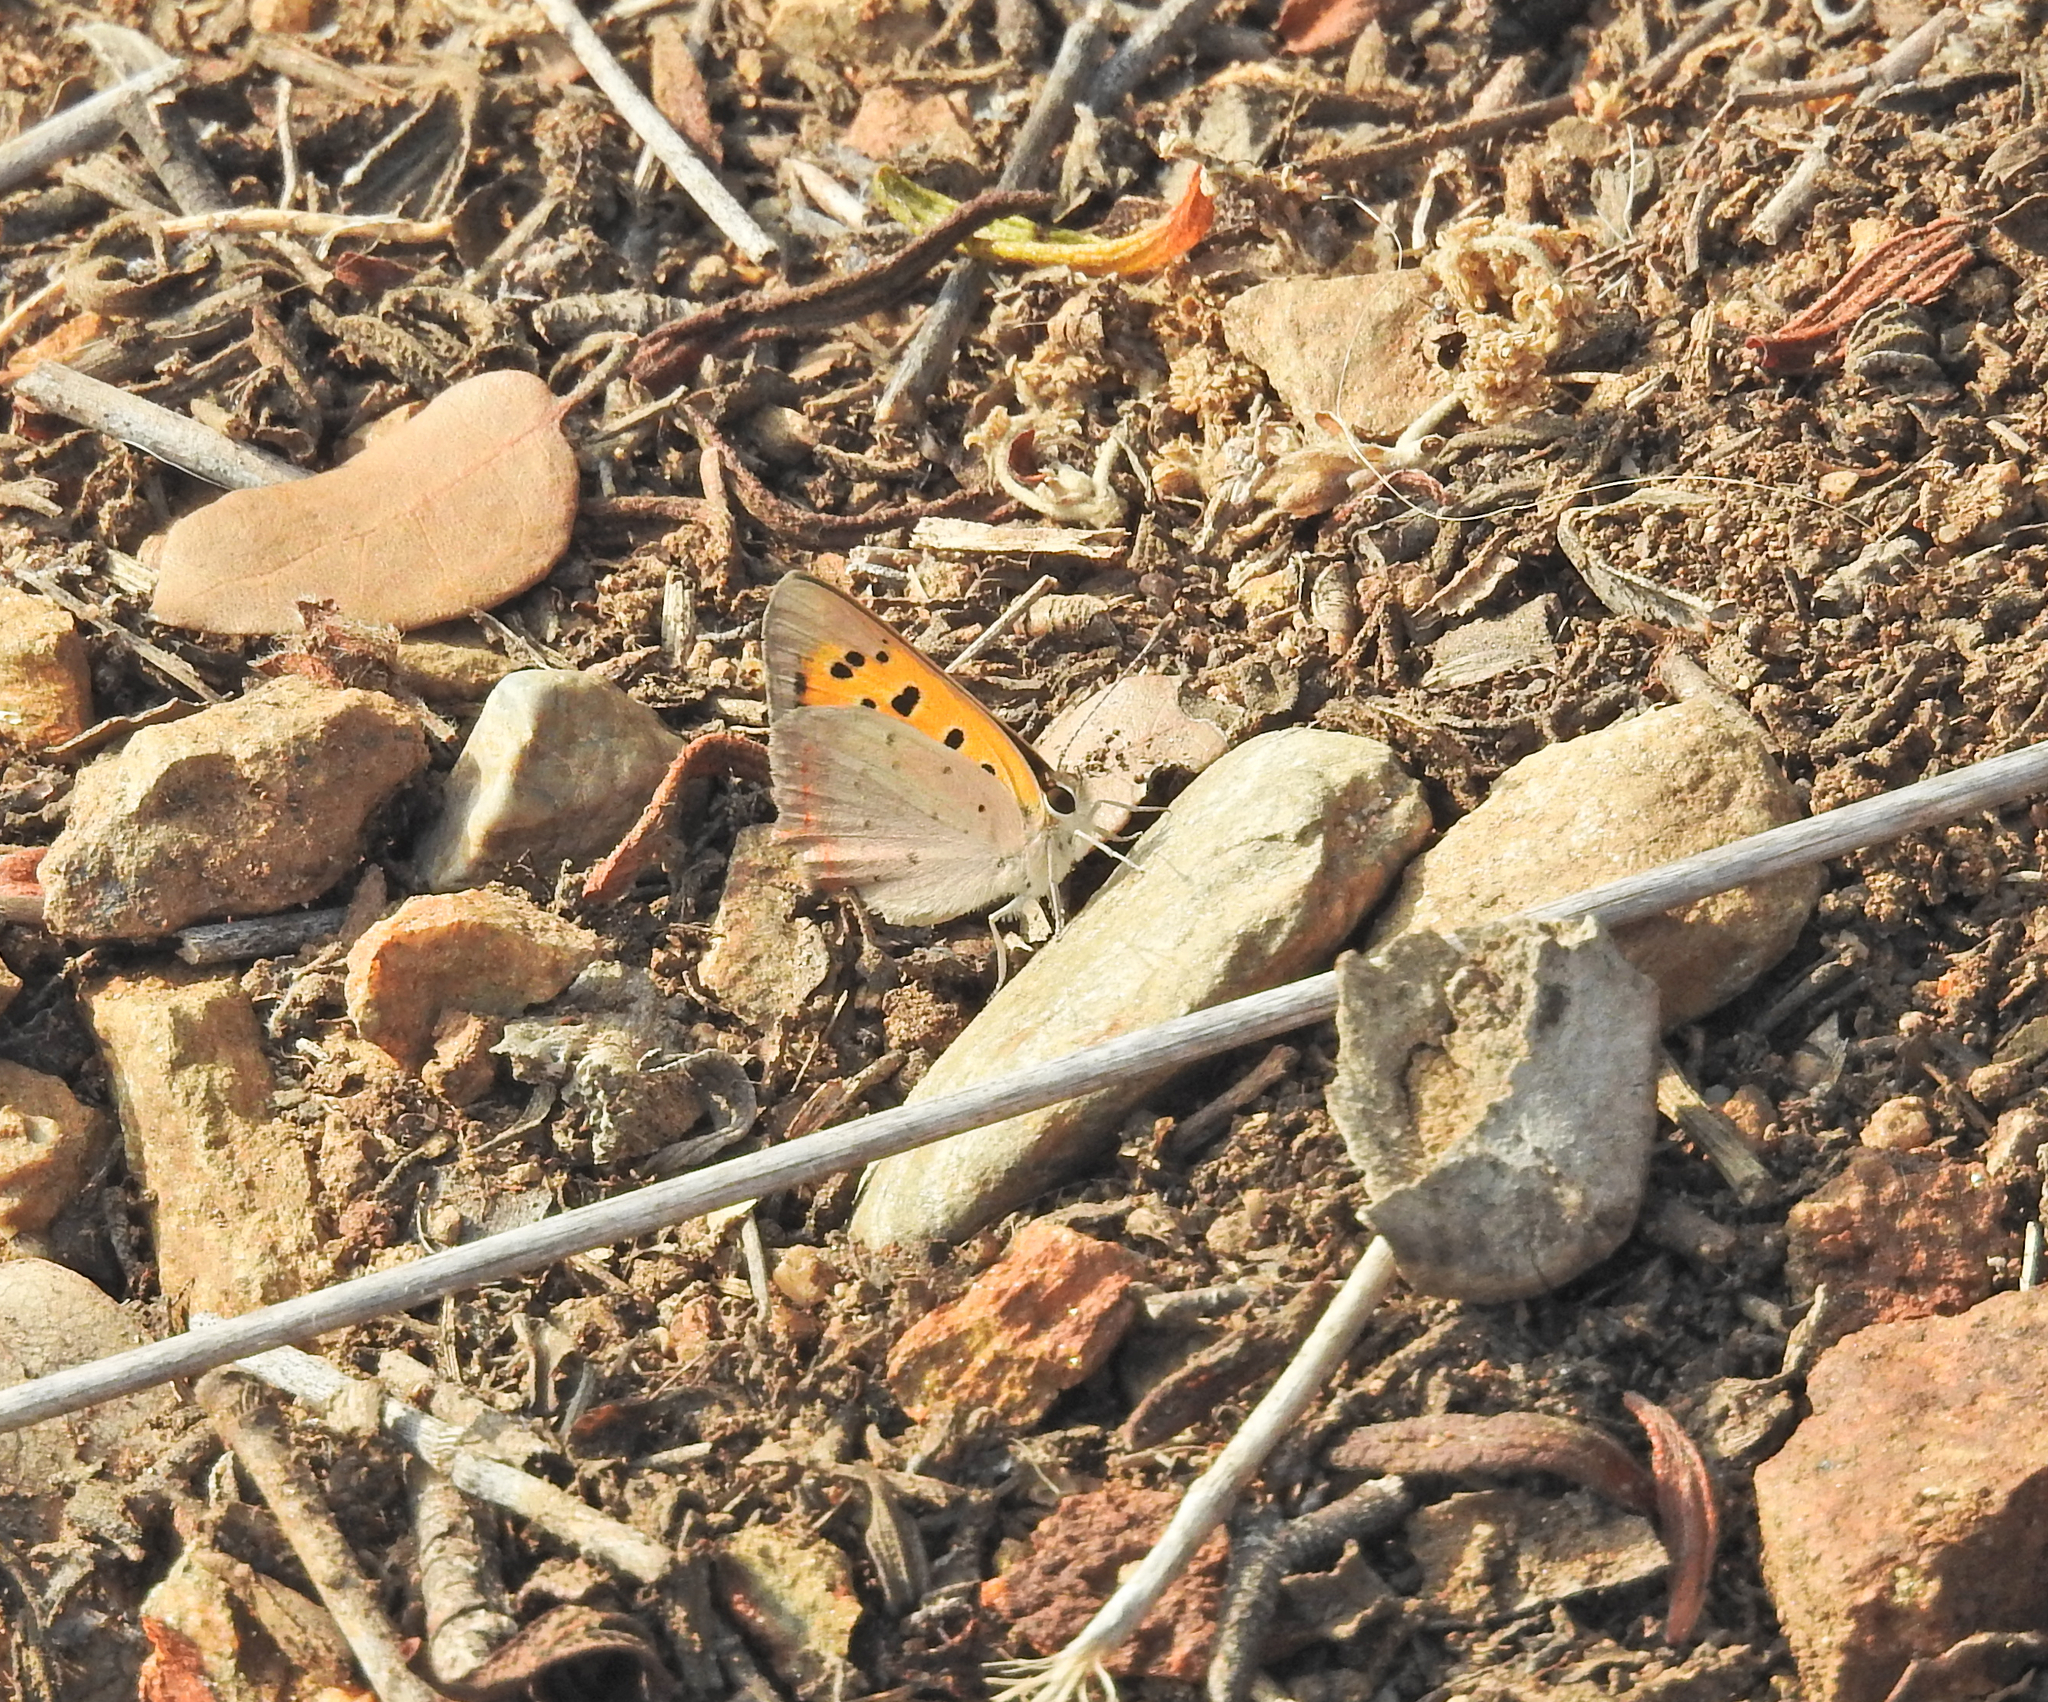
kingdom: Animalia
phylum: Arthropoda
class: Insecta
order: Lepidoptera
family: Lycaenidae
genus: Lycaena
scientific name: Lycaena phlaeas
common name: Small copper
